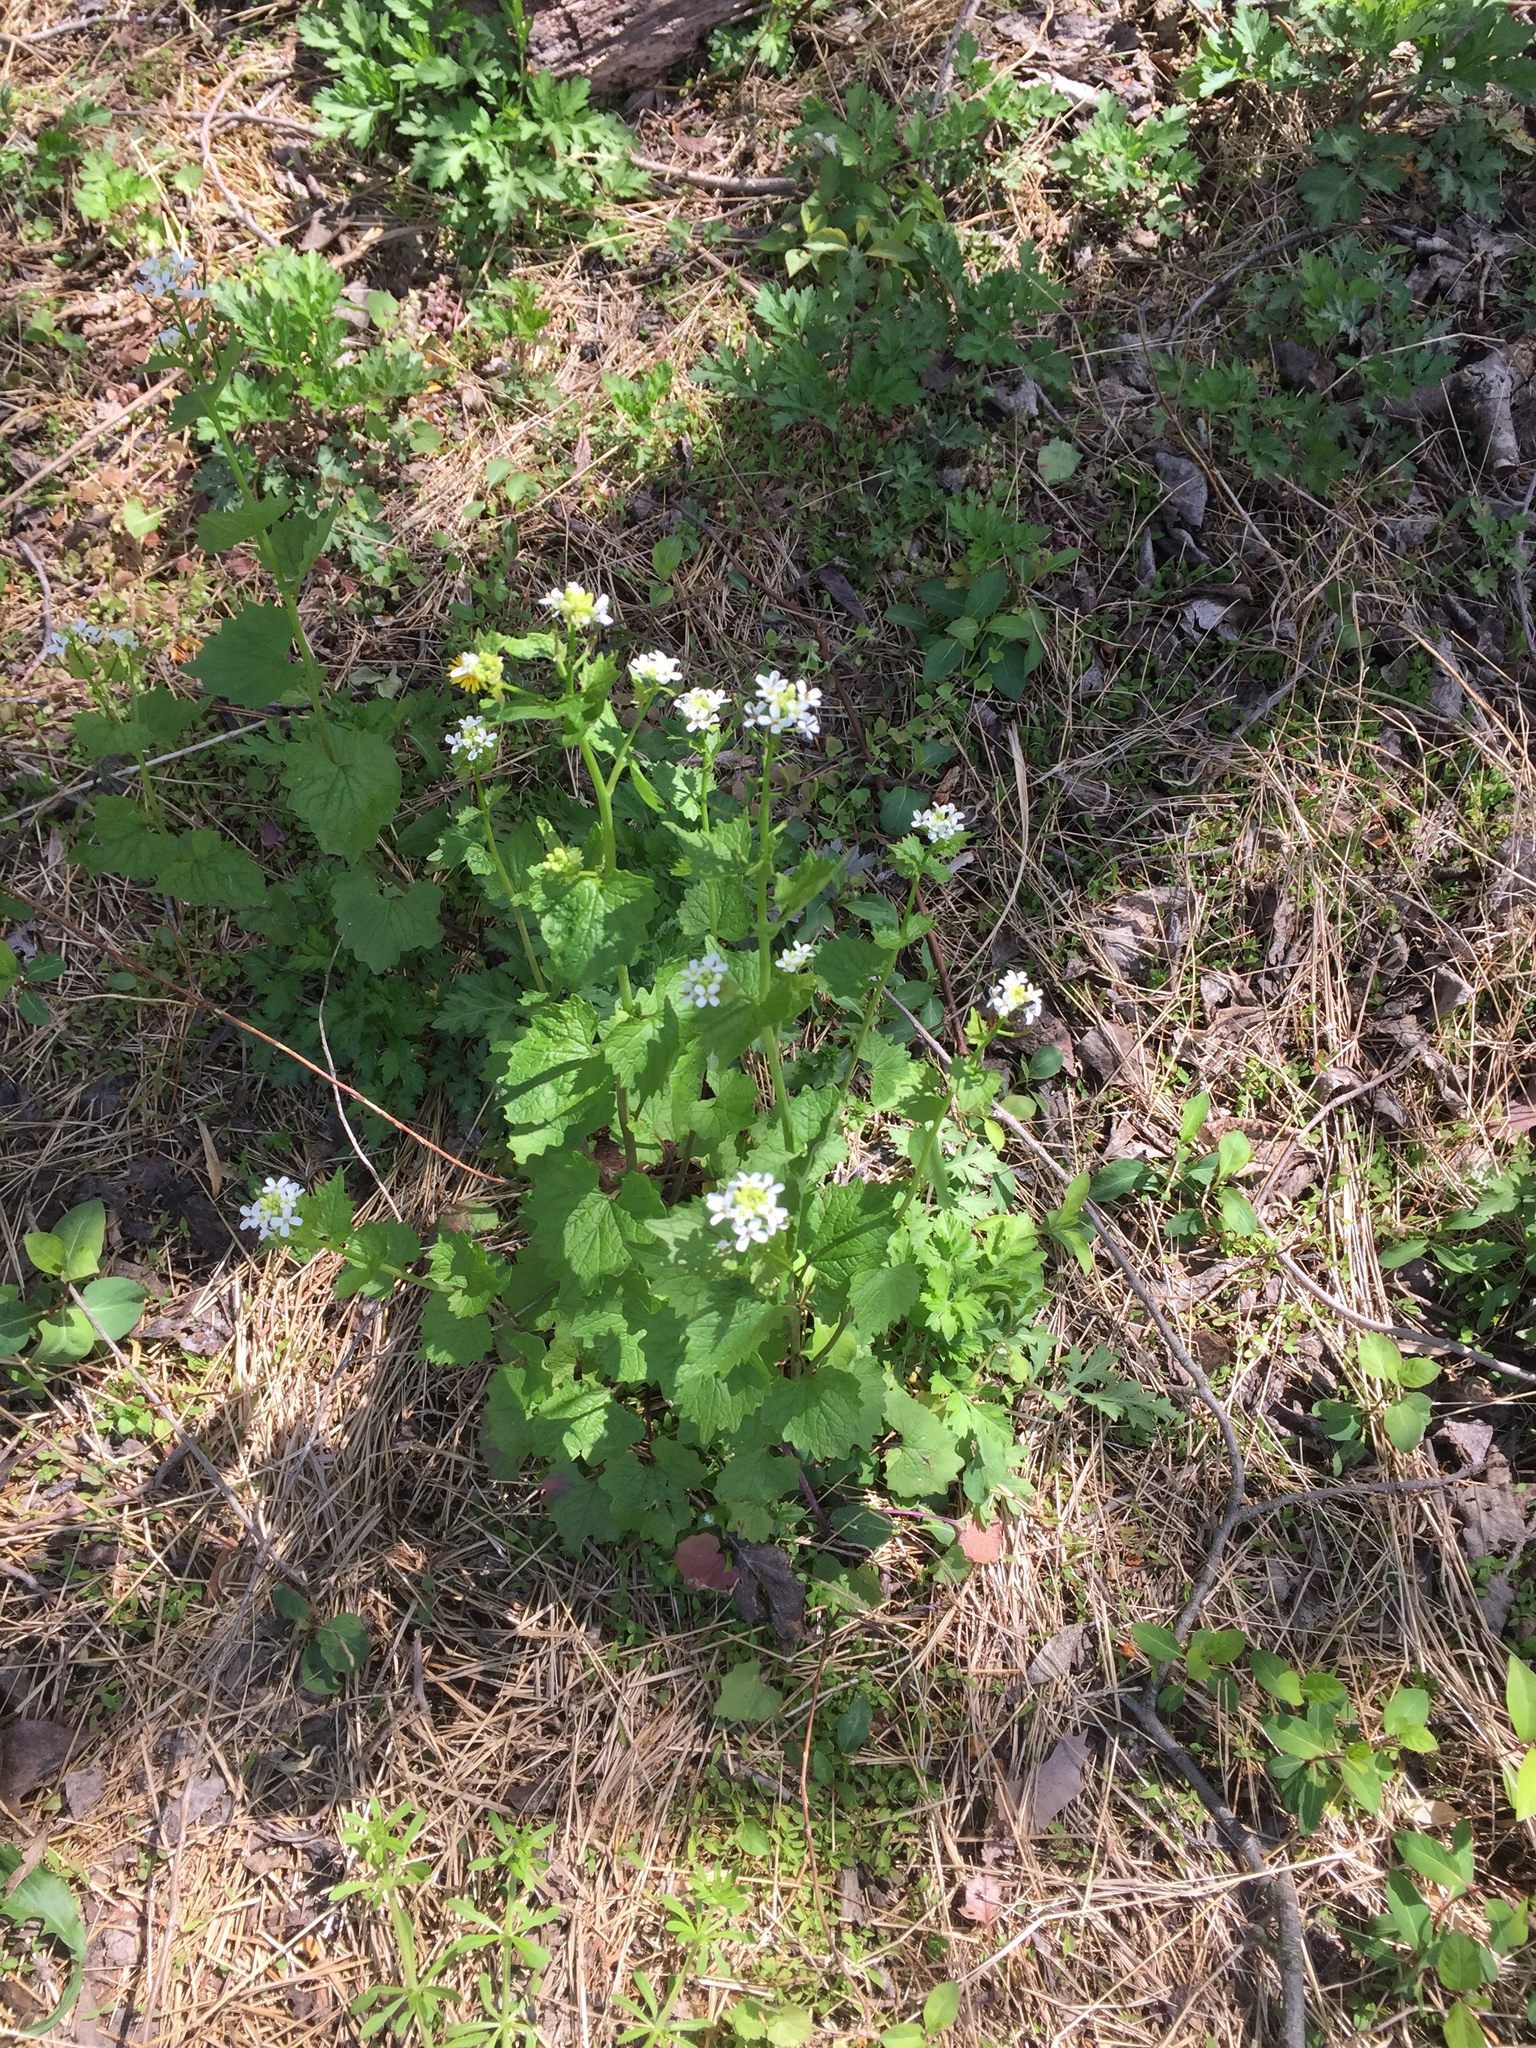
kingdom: Plantae
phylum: Tracheophyta
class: Magnoliopsida
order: Brassicales
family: Brassicaceae
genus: Alliaria
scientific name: Alliaria petiolata
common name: Garlic mustard
